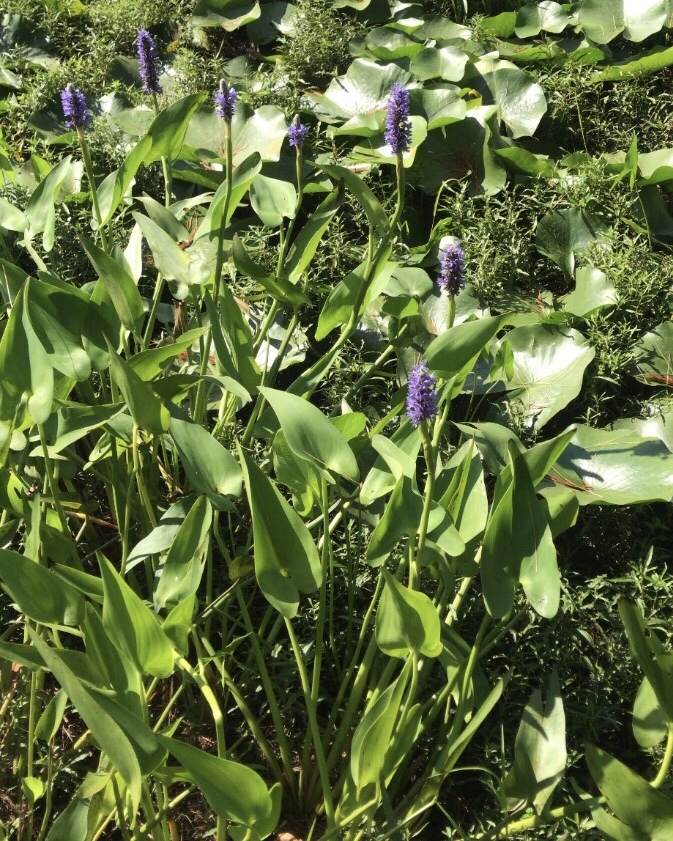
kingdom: Plantae
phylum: Tracheophyta
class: Liliopsida
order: Commelinales
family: Pontederiaceae
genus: Pontederia
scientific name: Pontederia cordata
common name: Pickerelweed
